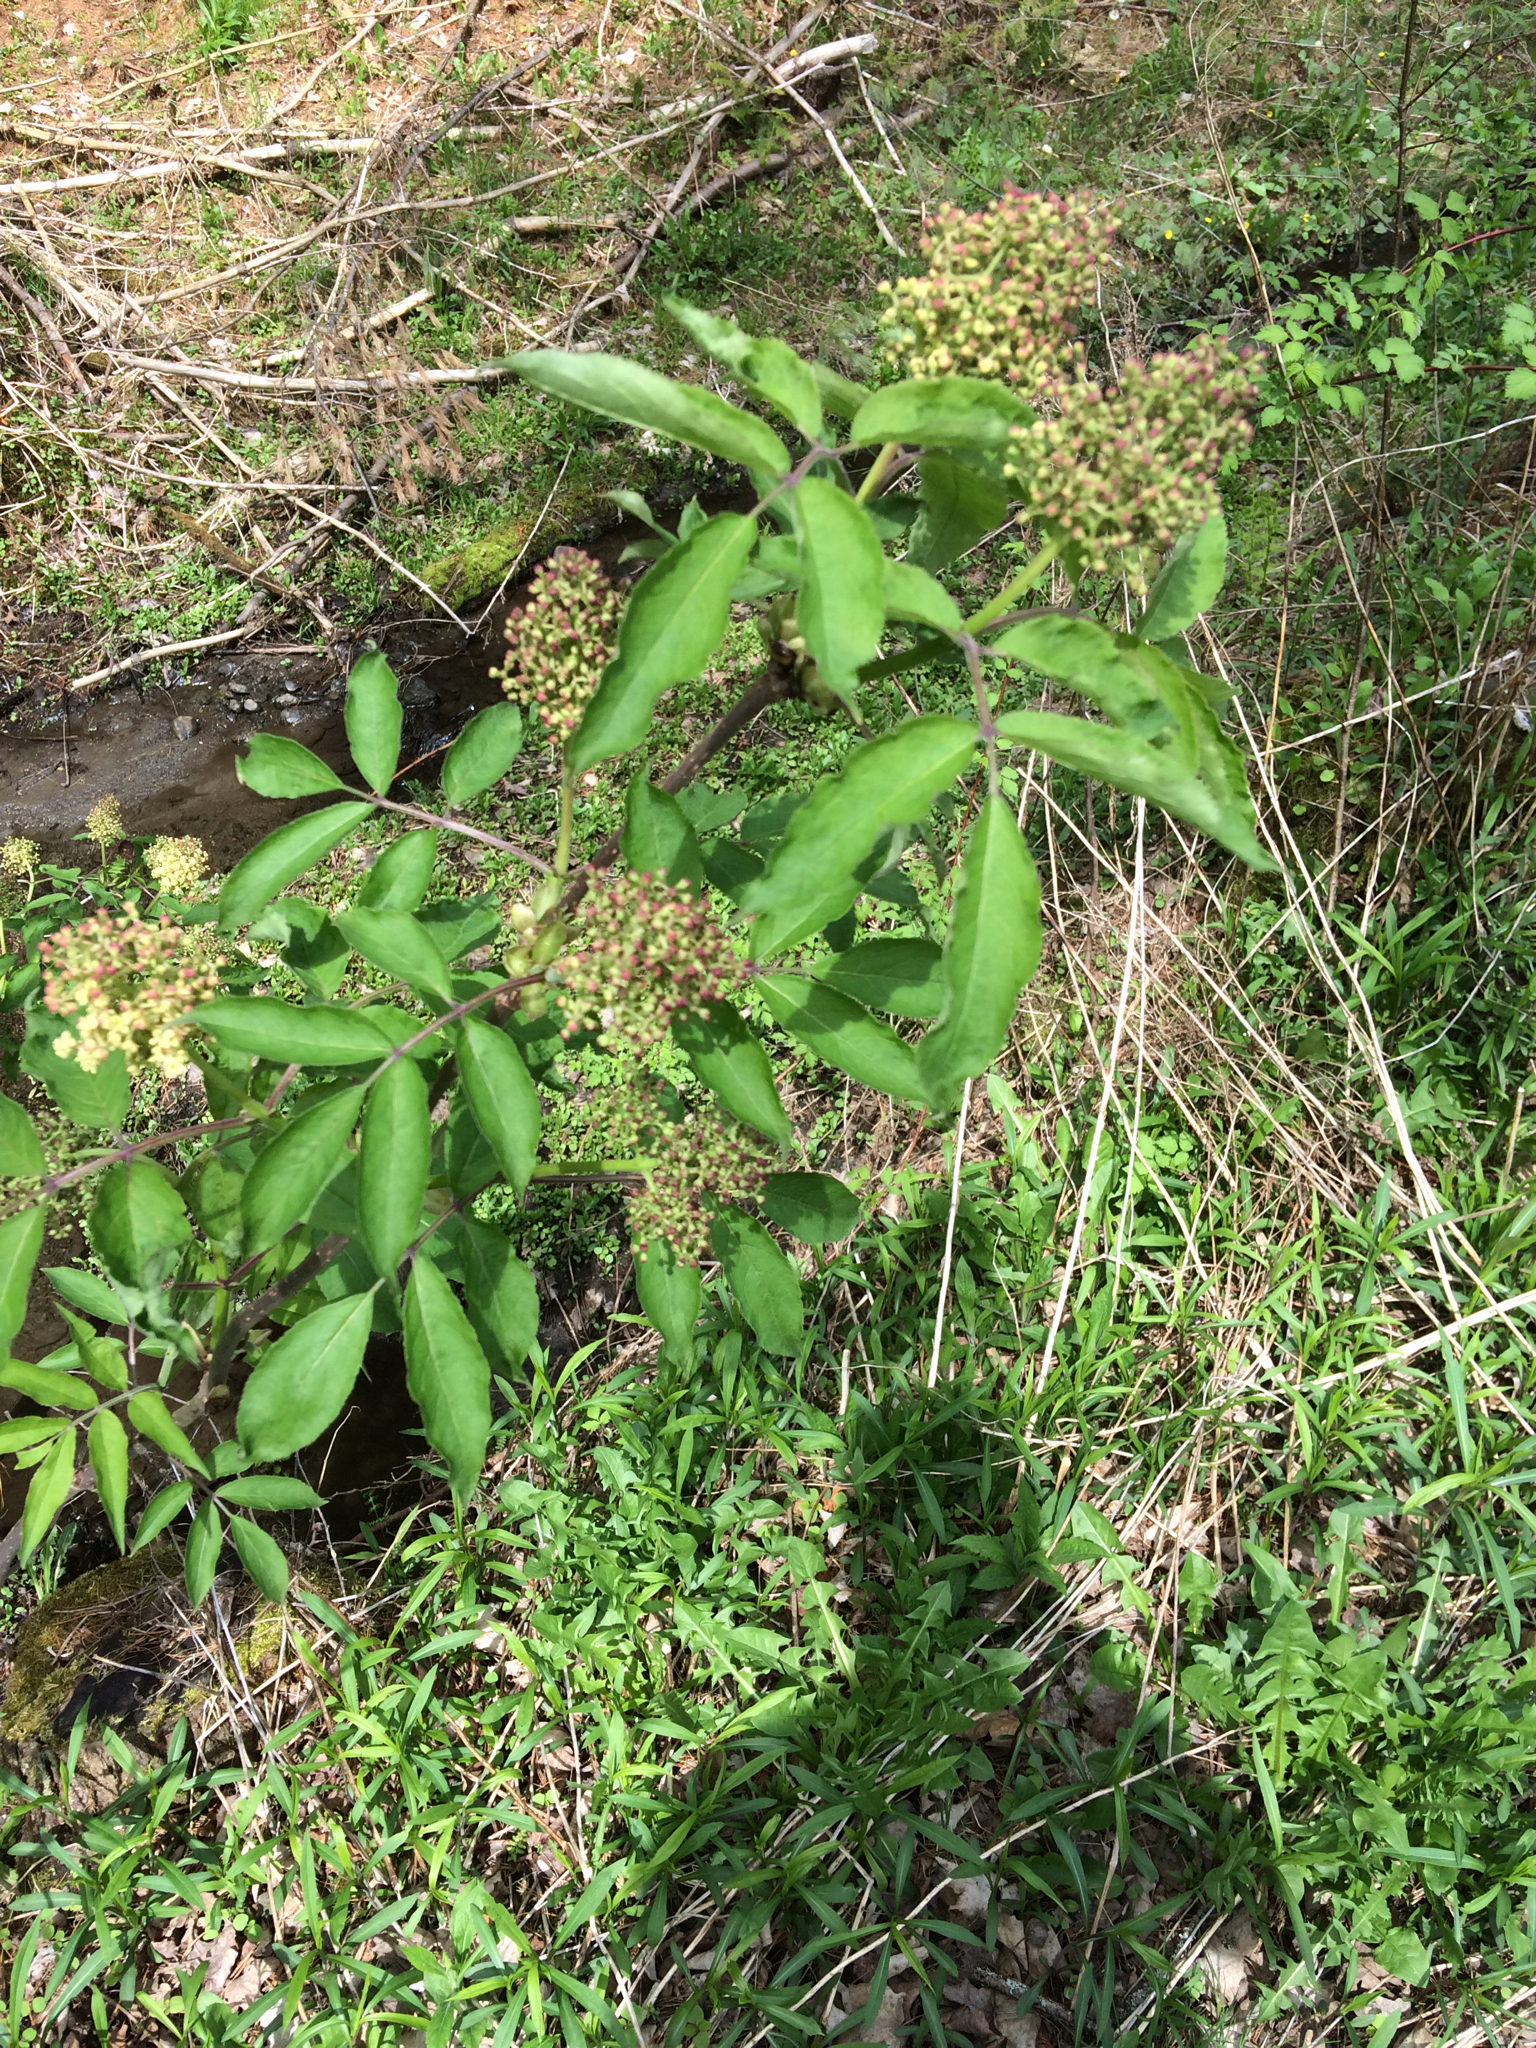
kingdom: Plantae
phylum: Tracheophyta
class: Magnoliopsida
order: Dipsacales
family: Viburnaceae
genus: Sambucus
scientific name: Sambucus racemosa
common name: Red-berried elder
